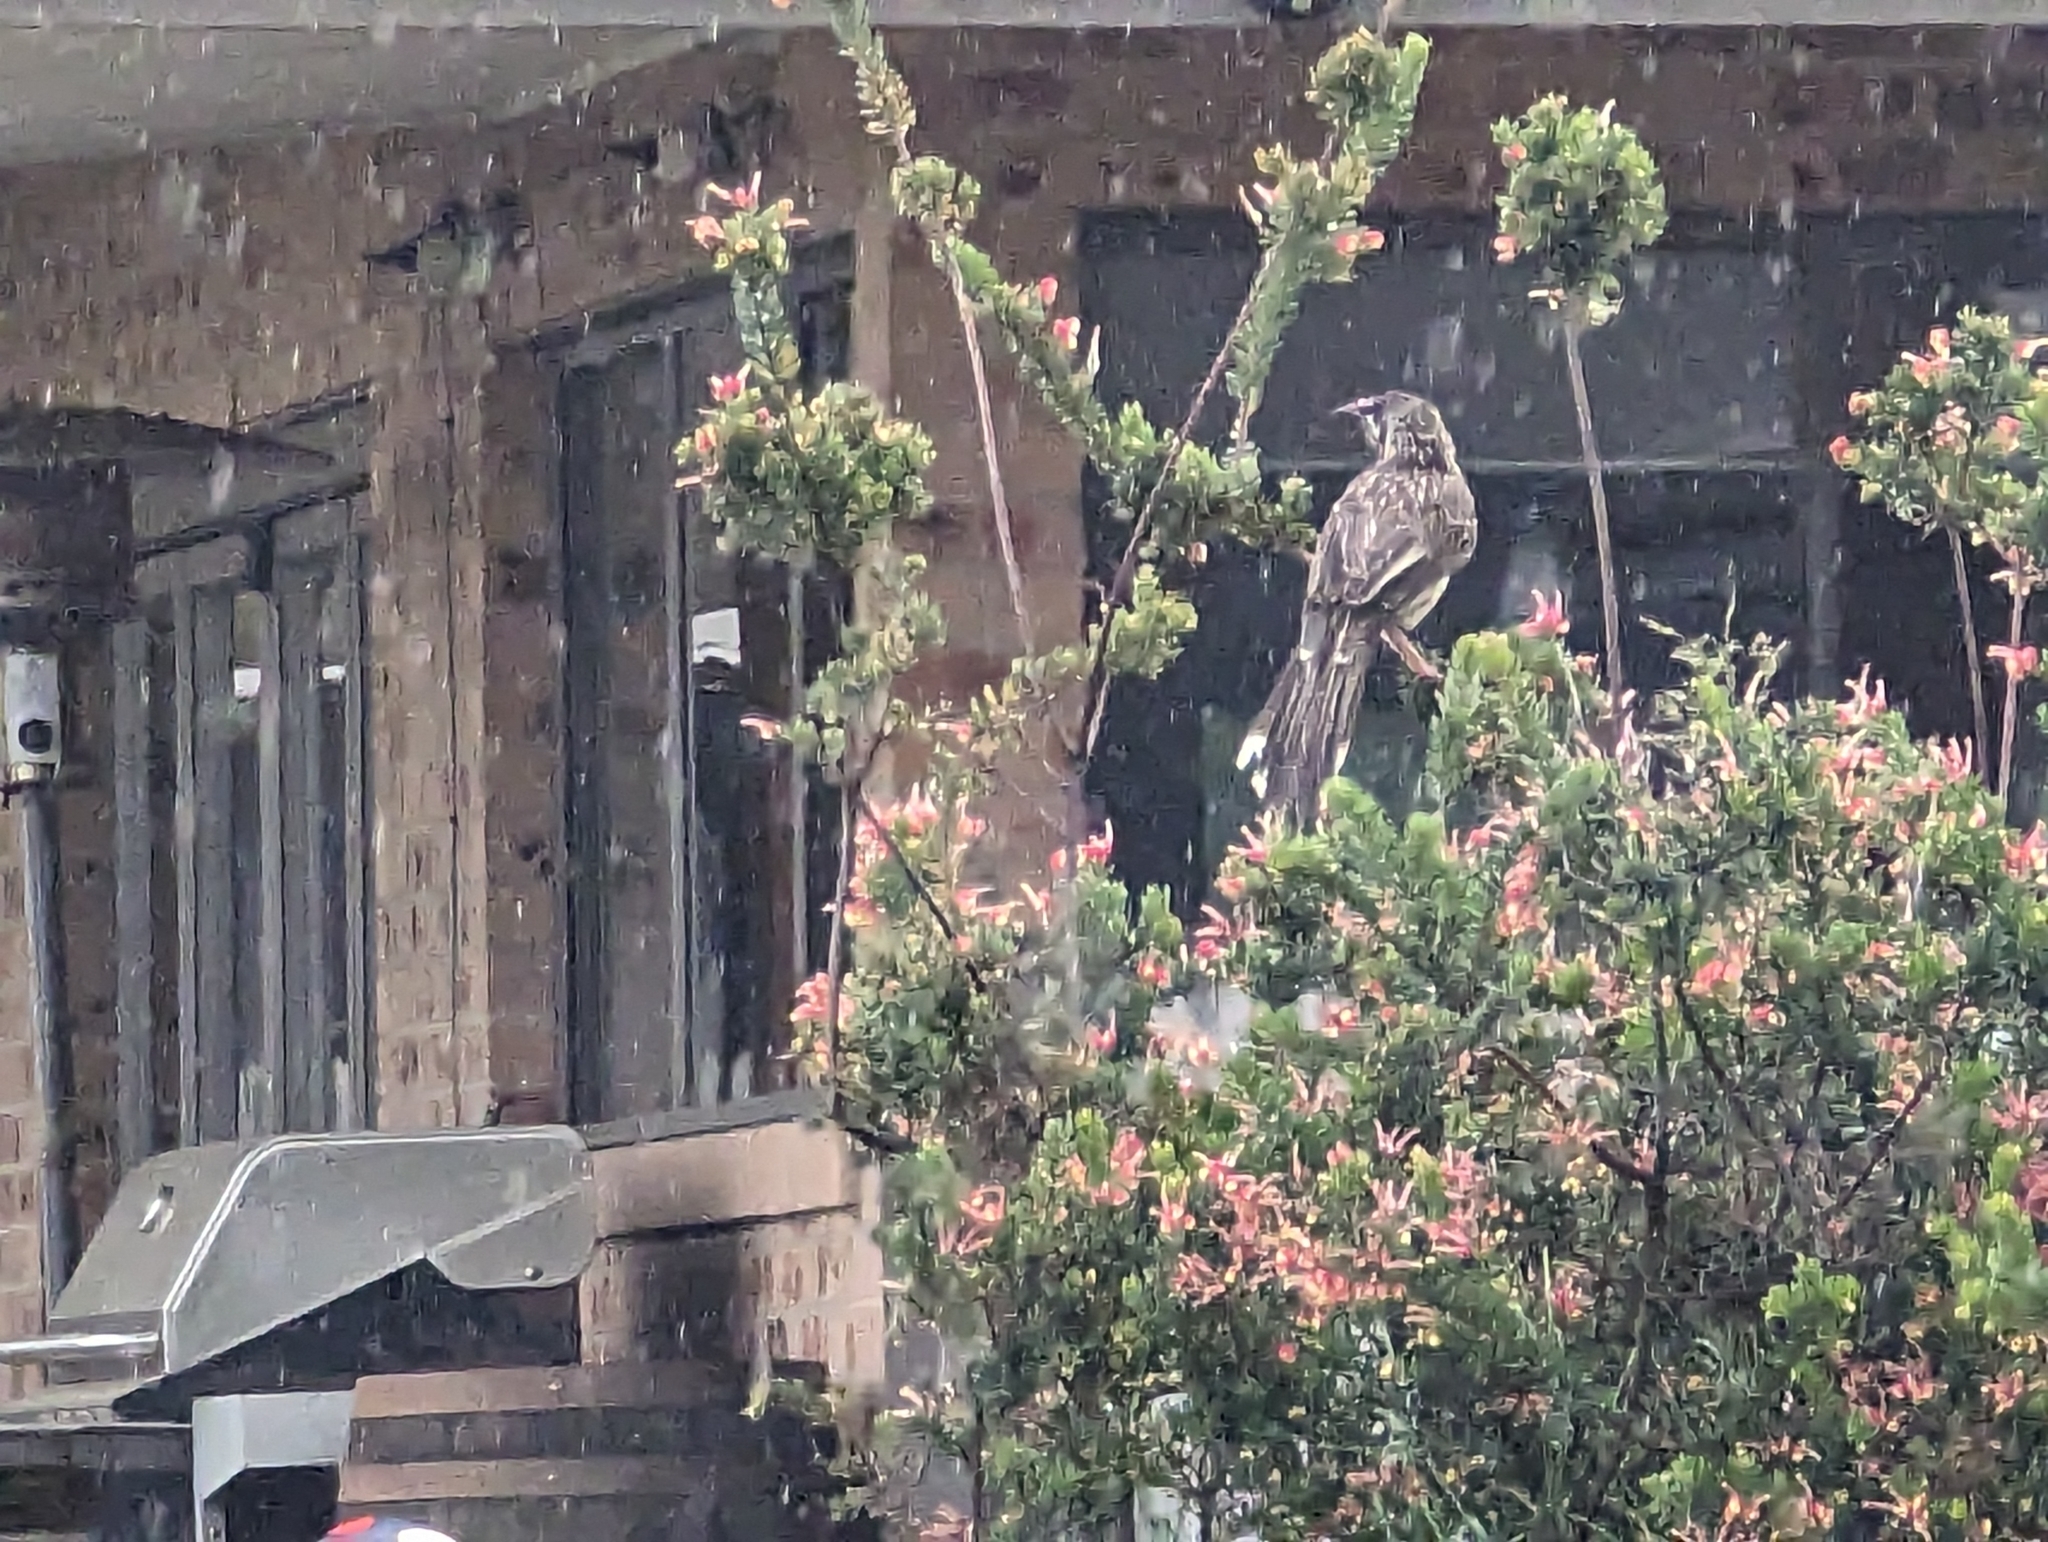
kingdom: Animalia
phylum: Chordata
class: Aves
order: Passeriformes
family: Meliphagidae
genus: Anthochaera
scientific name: Anthochaera carunculata
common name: Red wattlebird
